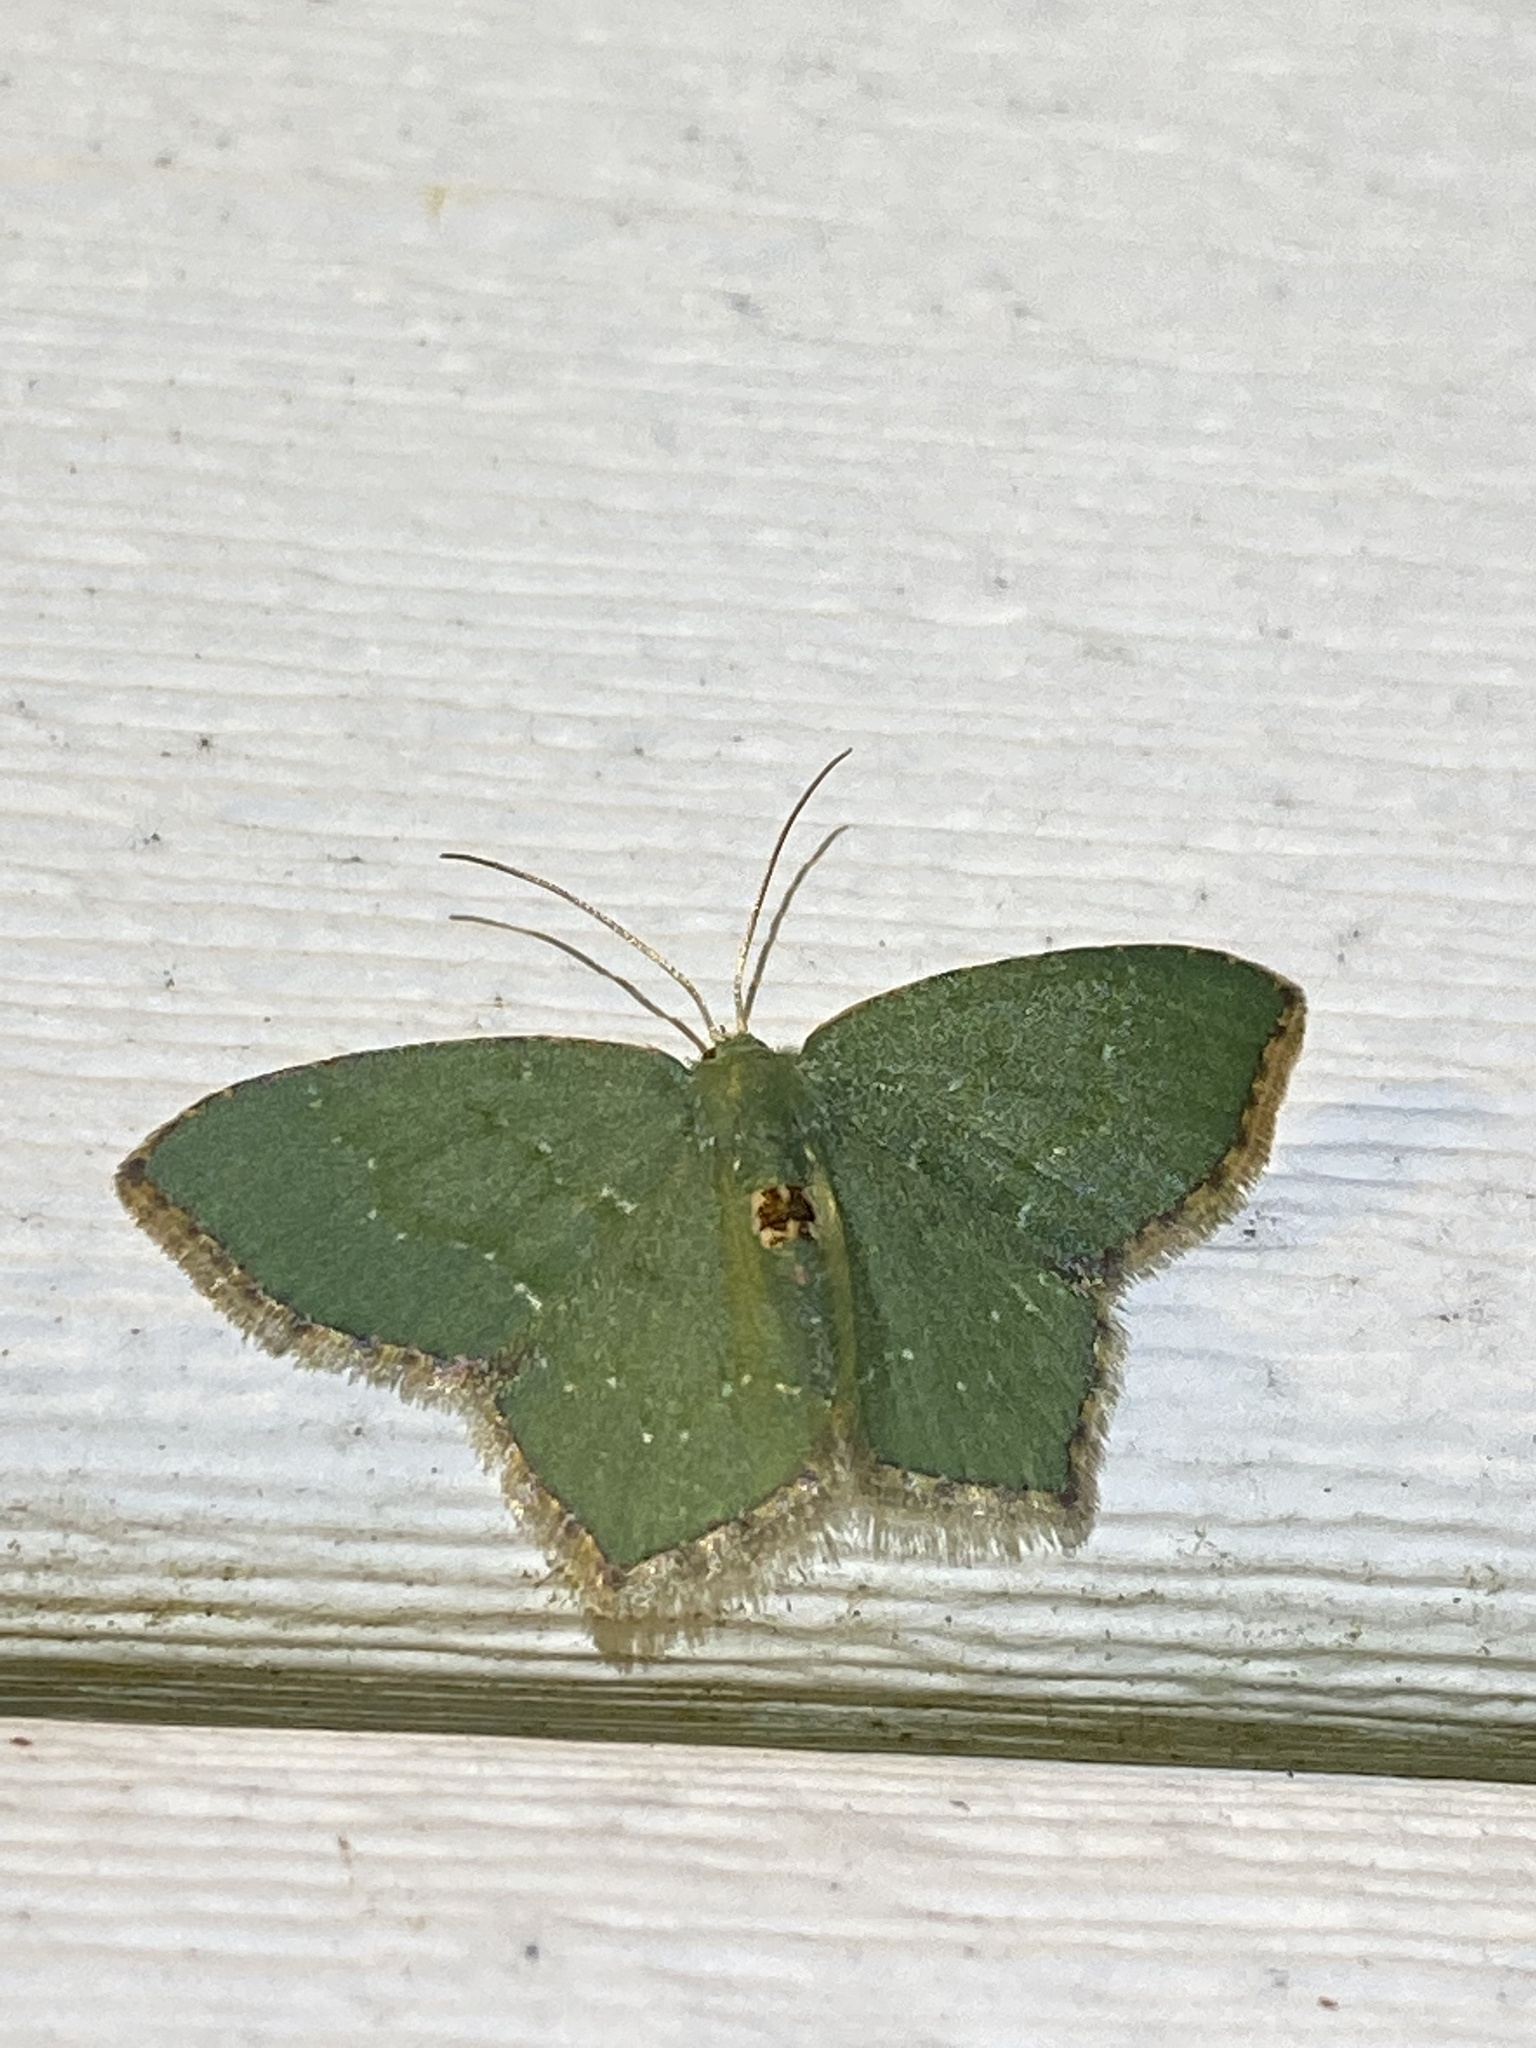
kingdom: Animalia
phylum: Arthropoda
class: Insecta
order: Lepidoptera
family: Geometridae
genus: Chloropteryx
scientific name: Chloropteryx tepperaria
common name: Angle winged emerald moth
